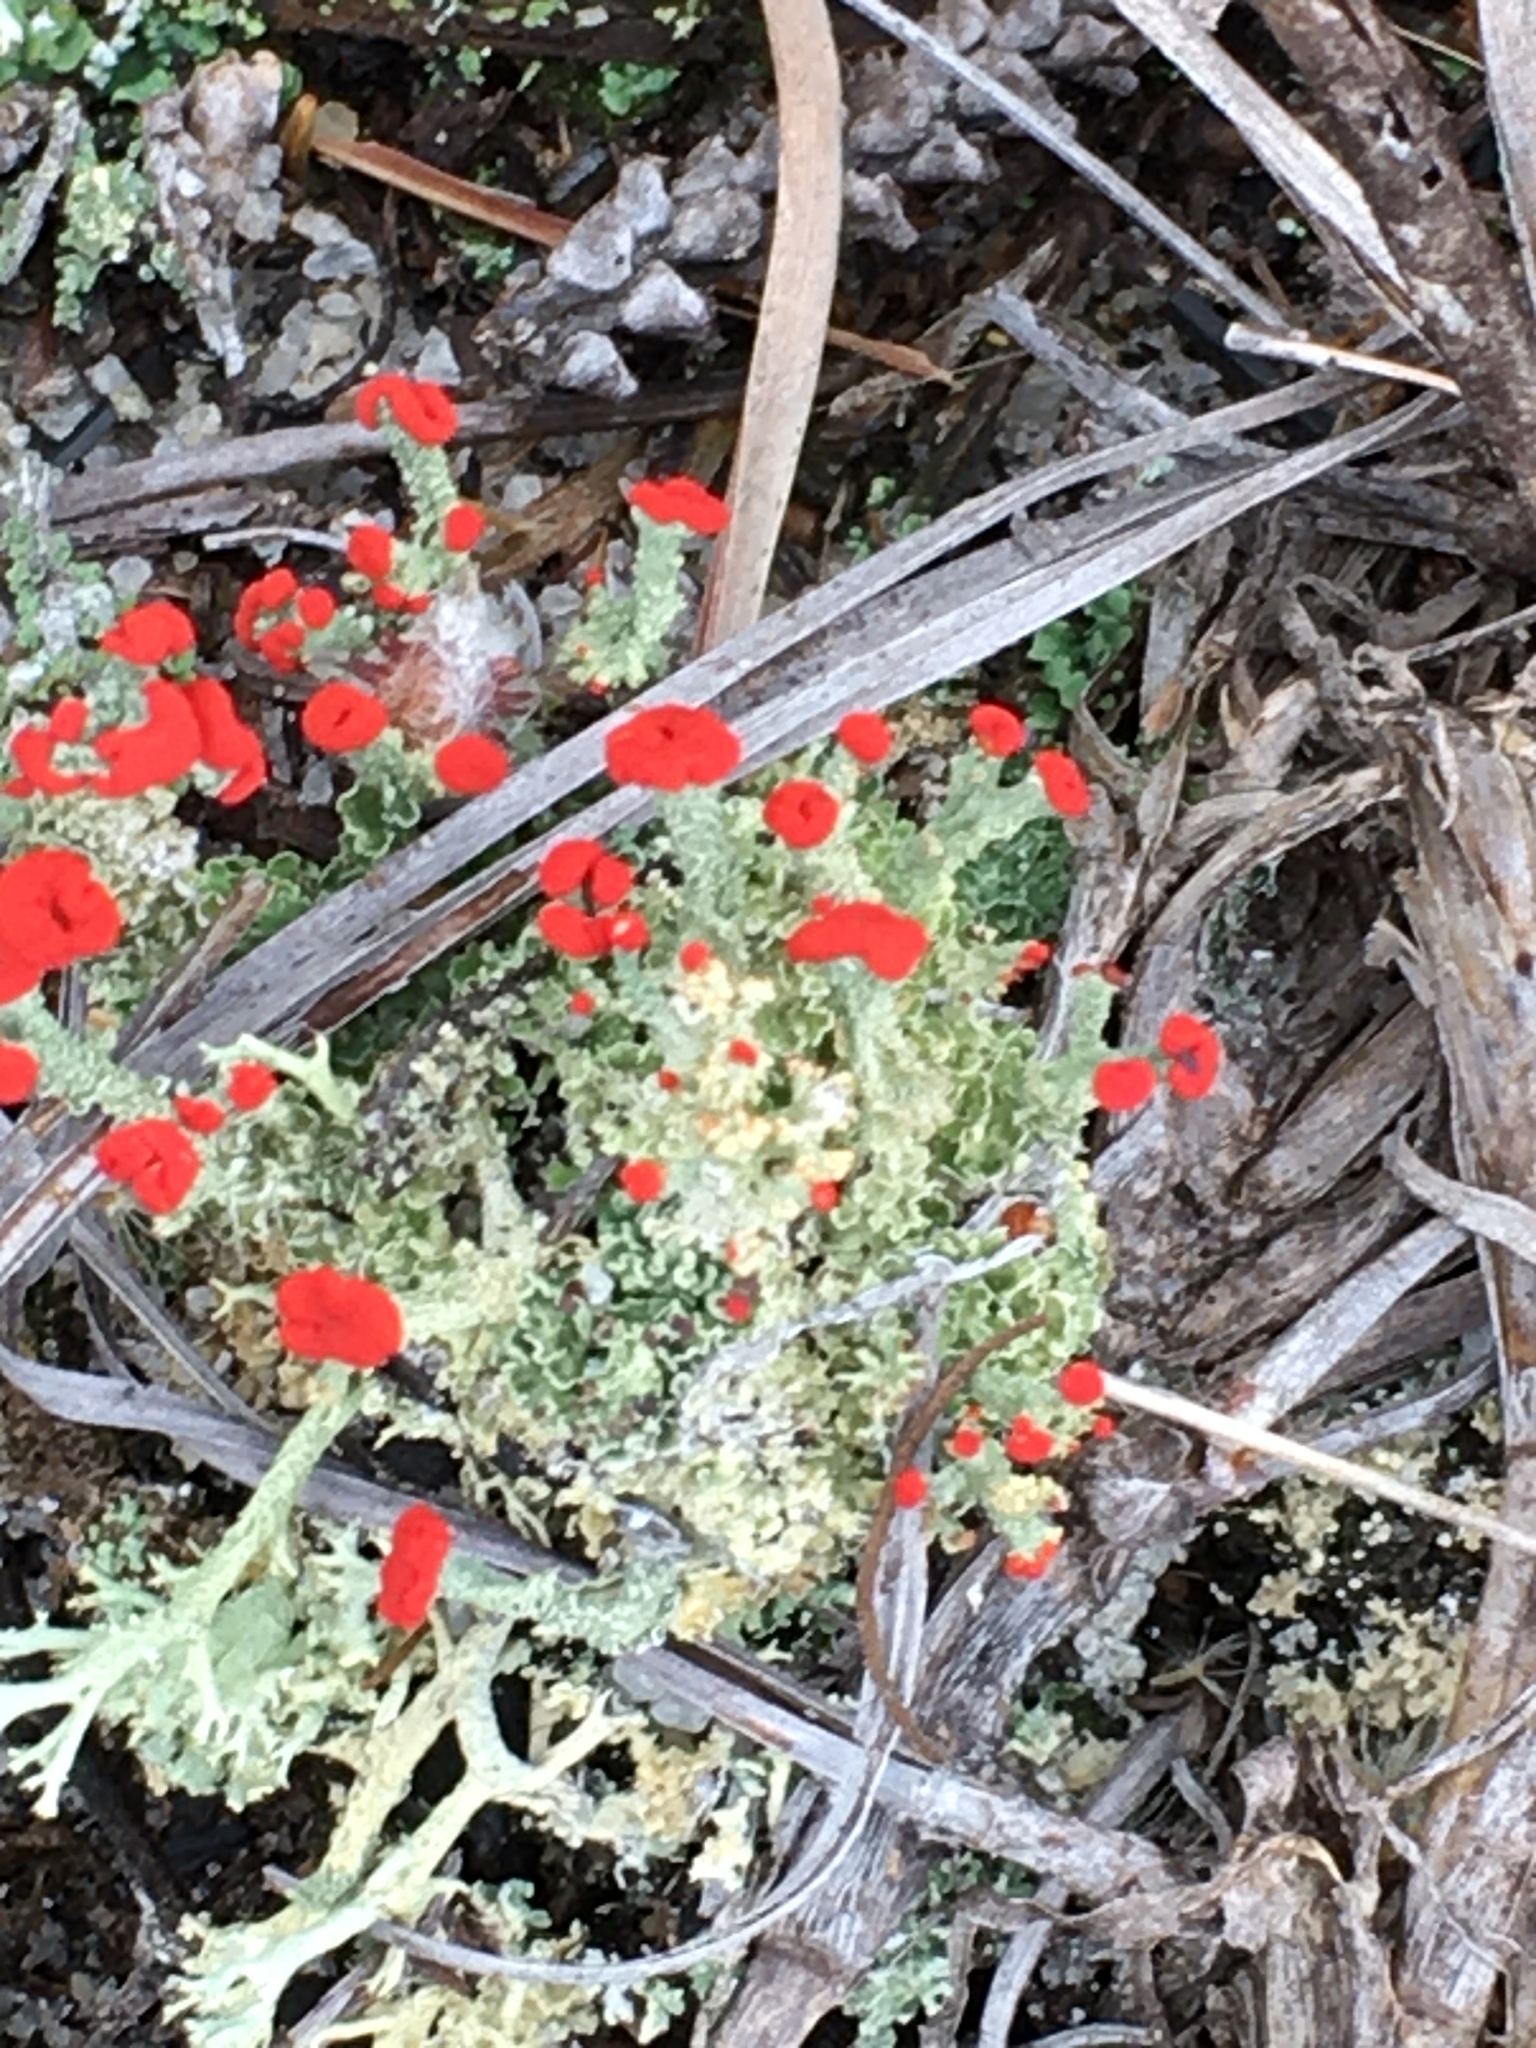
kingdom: Fungi
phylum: Ascomycota
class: Lecanoromycetes
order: Lecanorales
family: Cladoniaceae
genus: Cladonia
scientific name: Cladonia cristatella
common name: British soldier lichen
